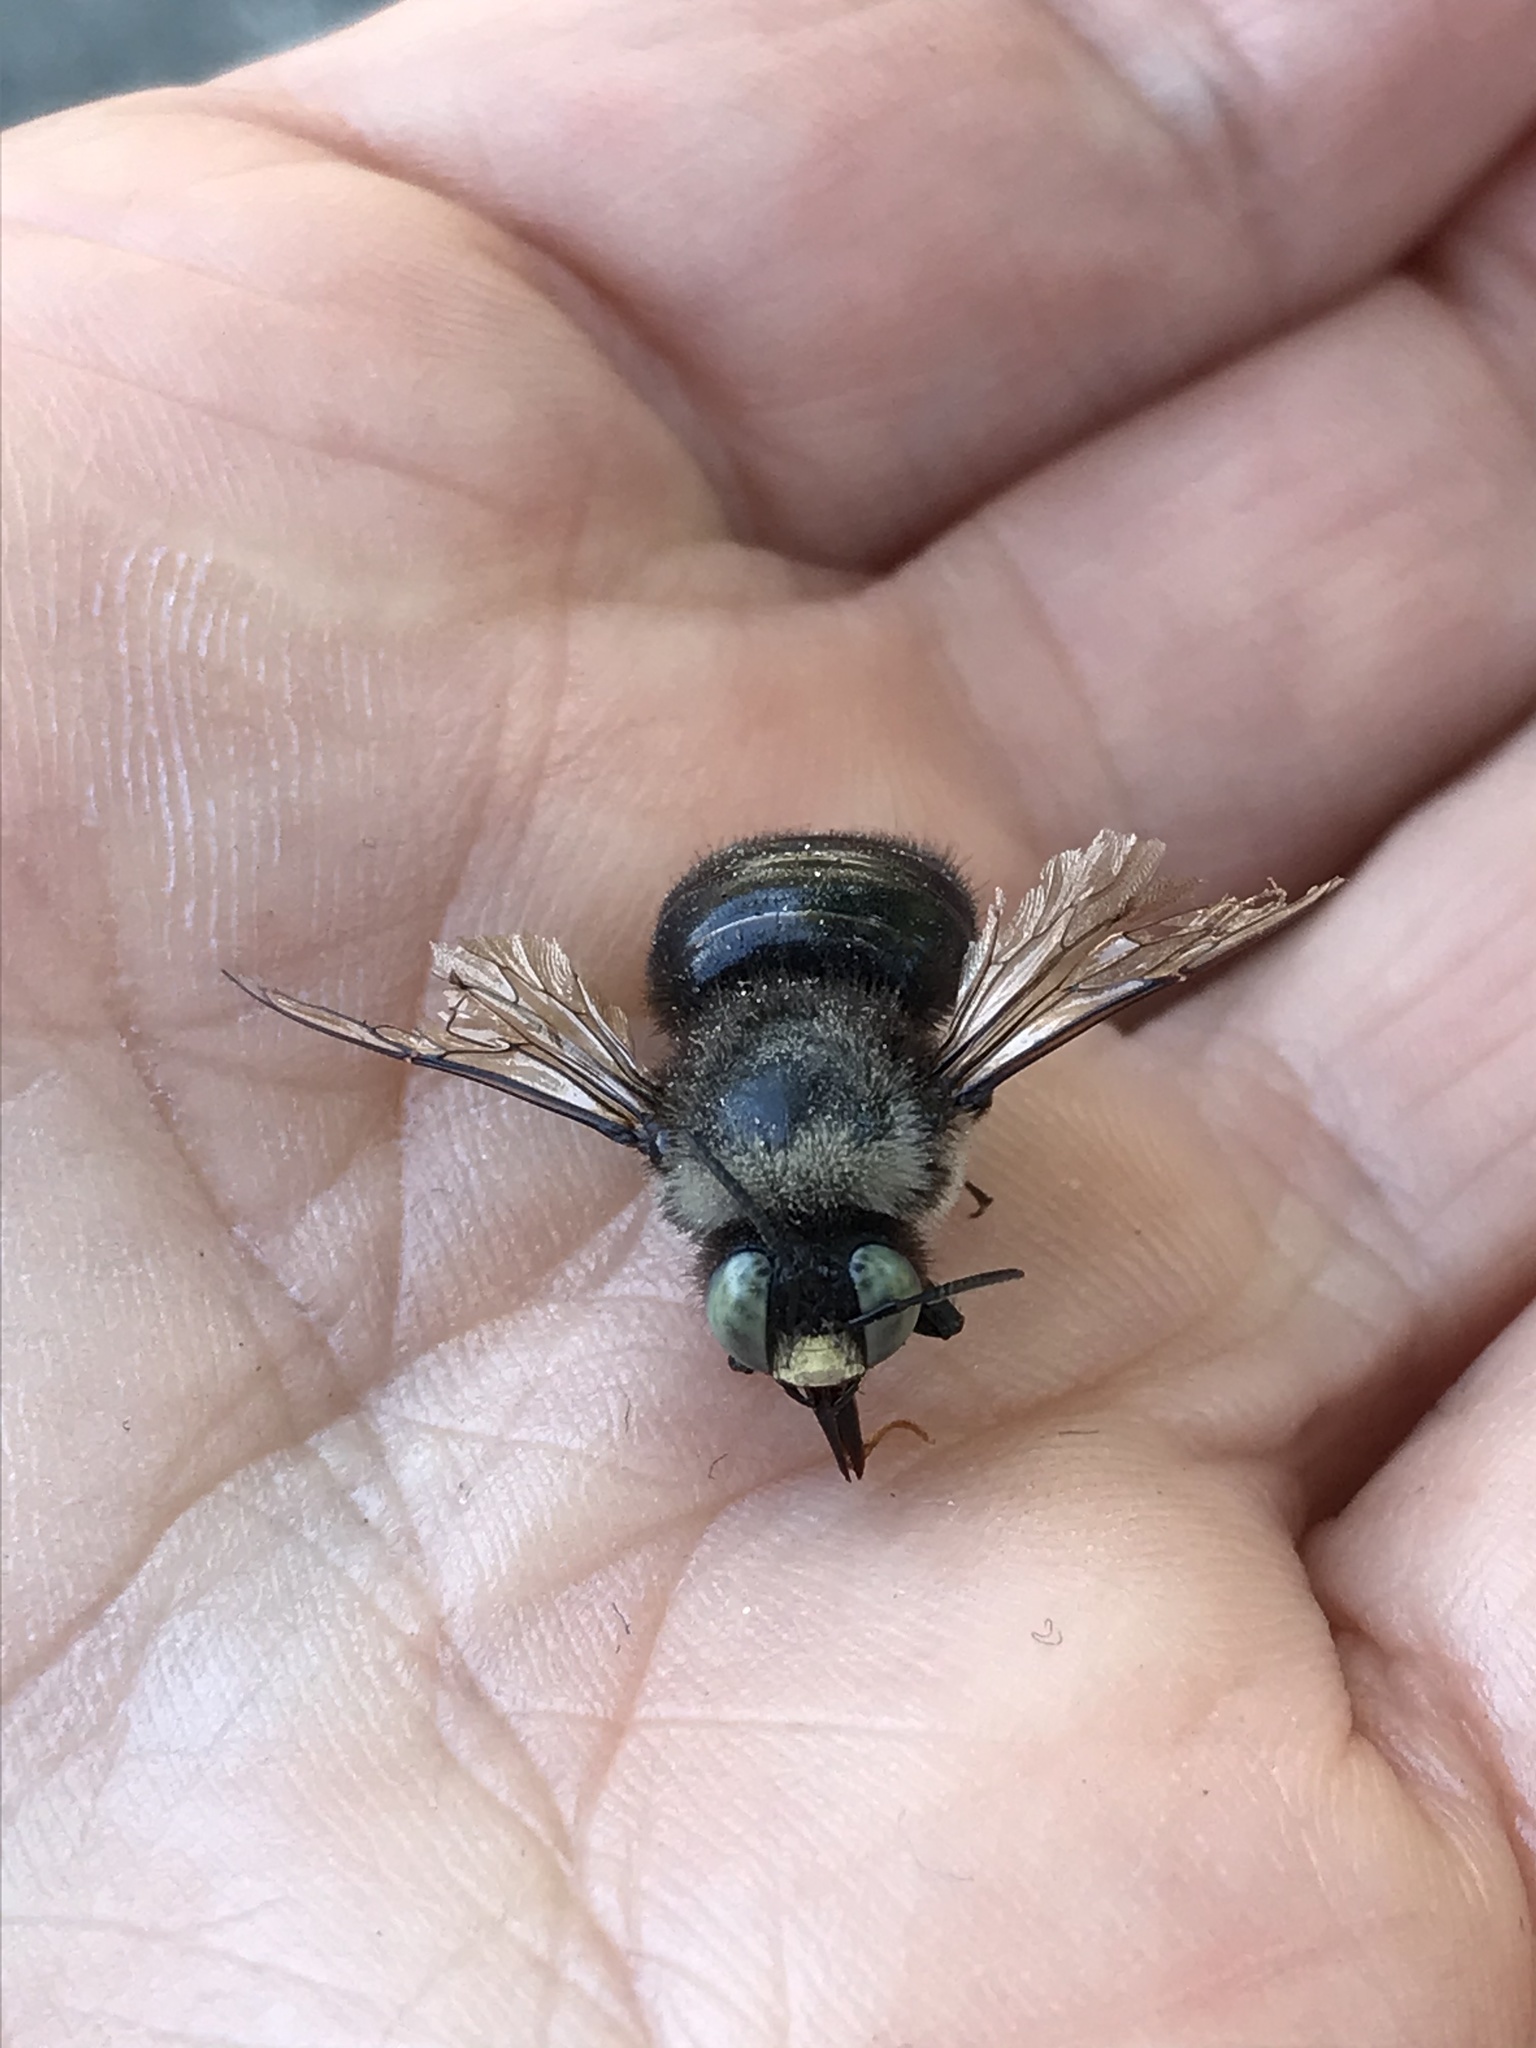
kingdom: Animalia
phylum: Arthropoda
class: Insecta
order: Hymenoptera
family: Apidae
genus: Xylocopa
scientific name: Xylocopa tabaniformis
